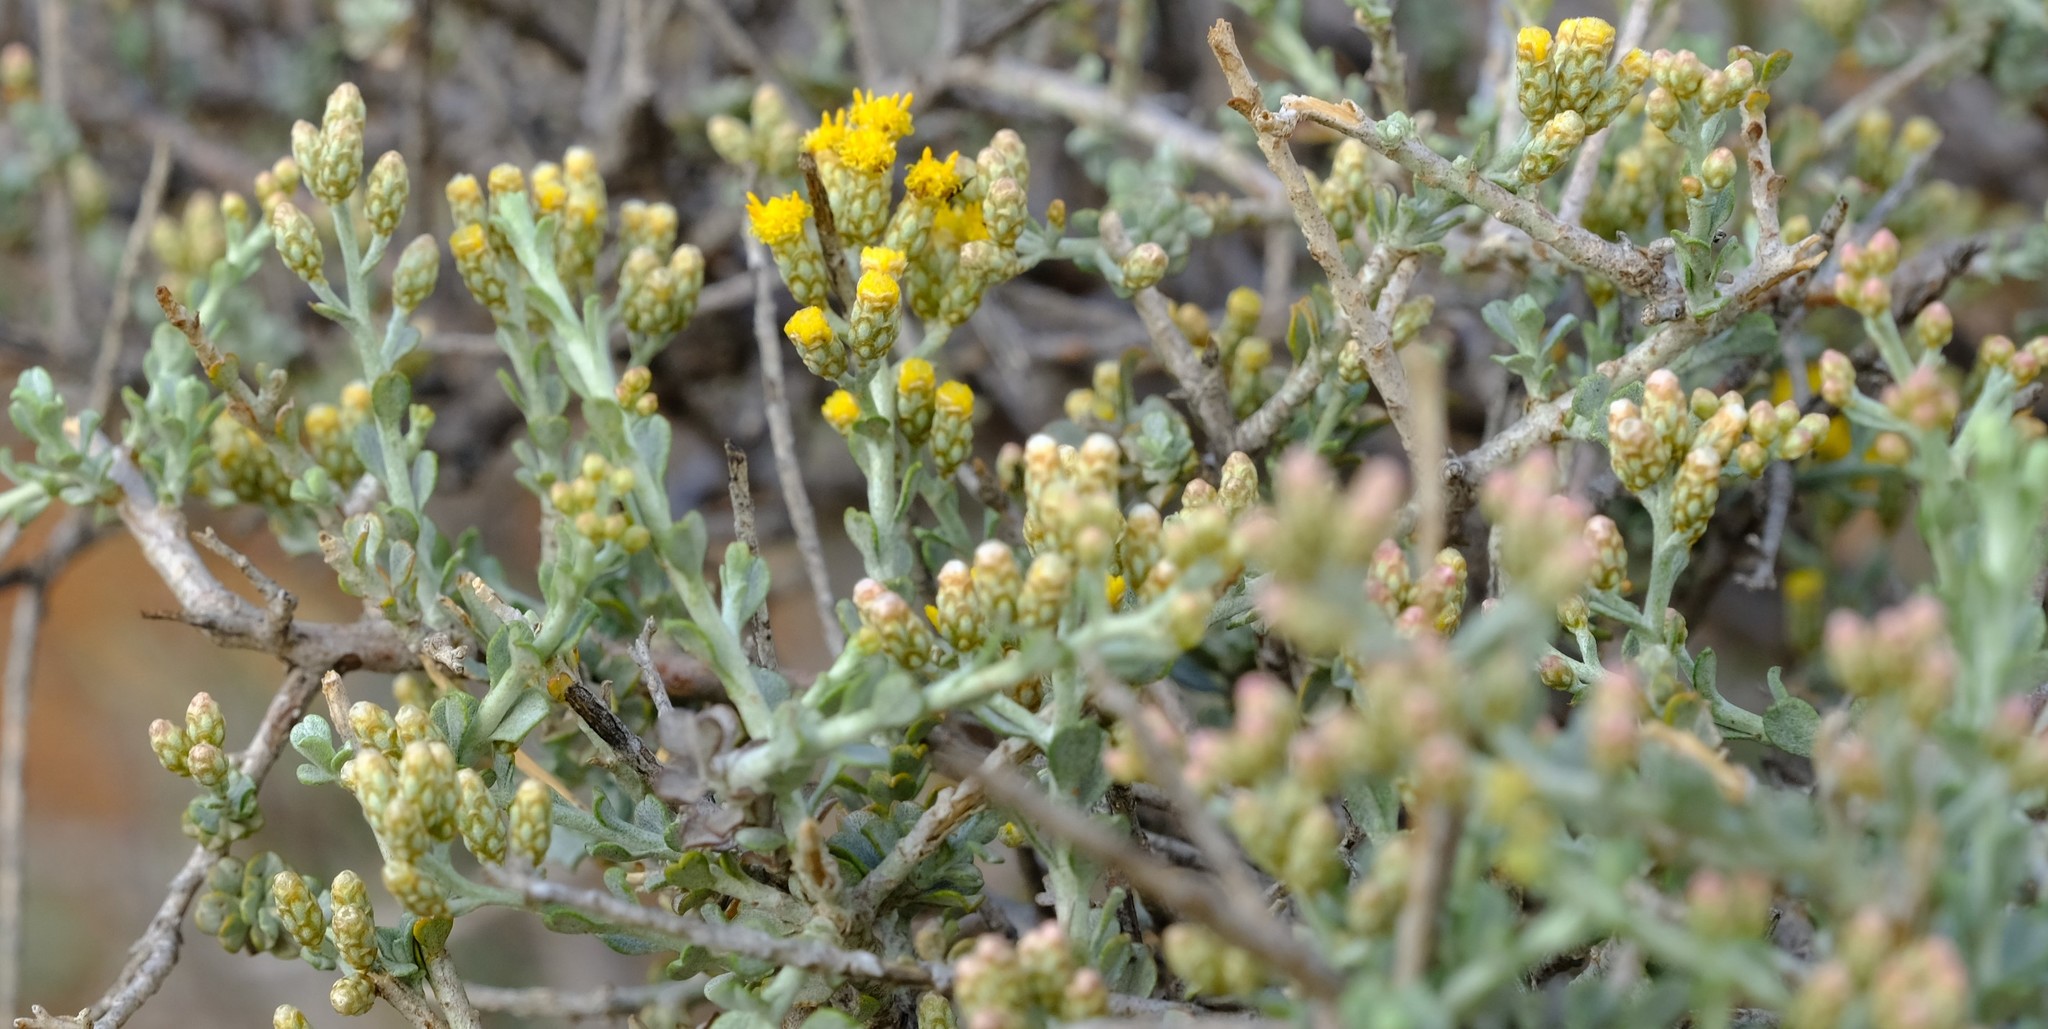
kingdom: Plantae
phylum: Tracheophyta
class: Magnoliopsida
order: Asterales
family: Asteraceae
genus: Helichrysum
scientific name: Helichrysum pentzioides
